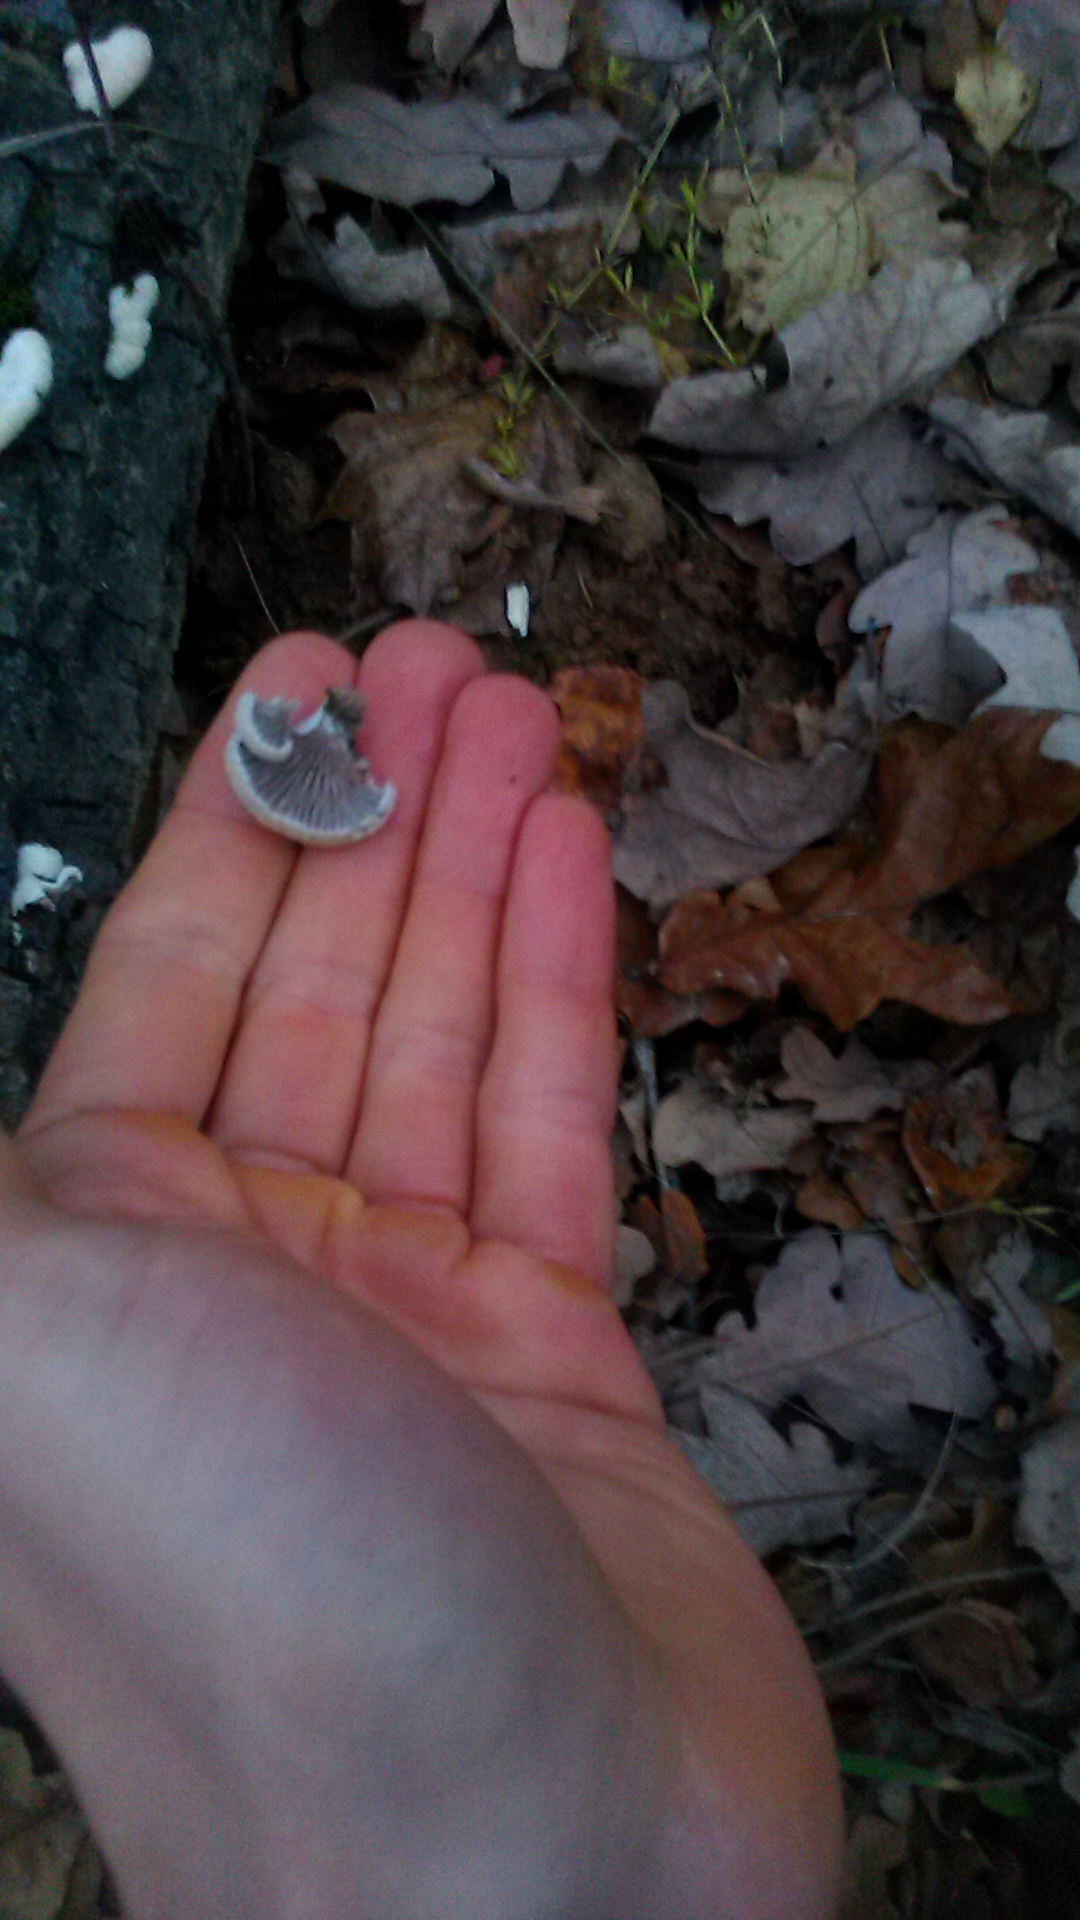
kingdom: Fungi
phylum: Basidiomycota
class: Agaricomycetes
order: Agaricales
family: Schizophyllaceae
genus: Schizophyllum
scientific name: Schizophyllum commune
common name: Common porecrust
